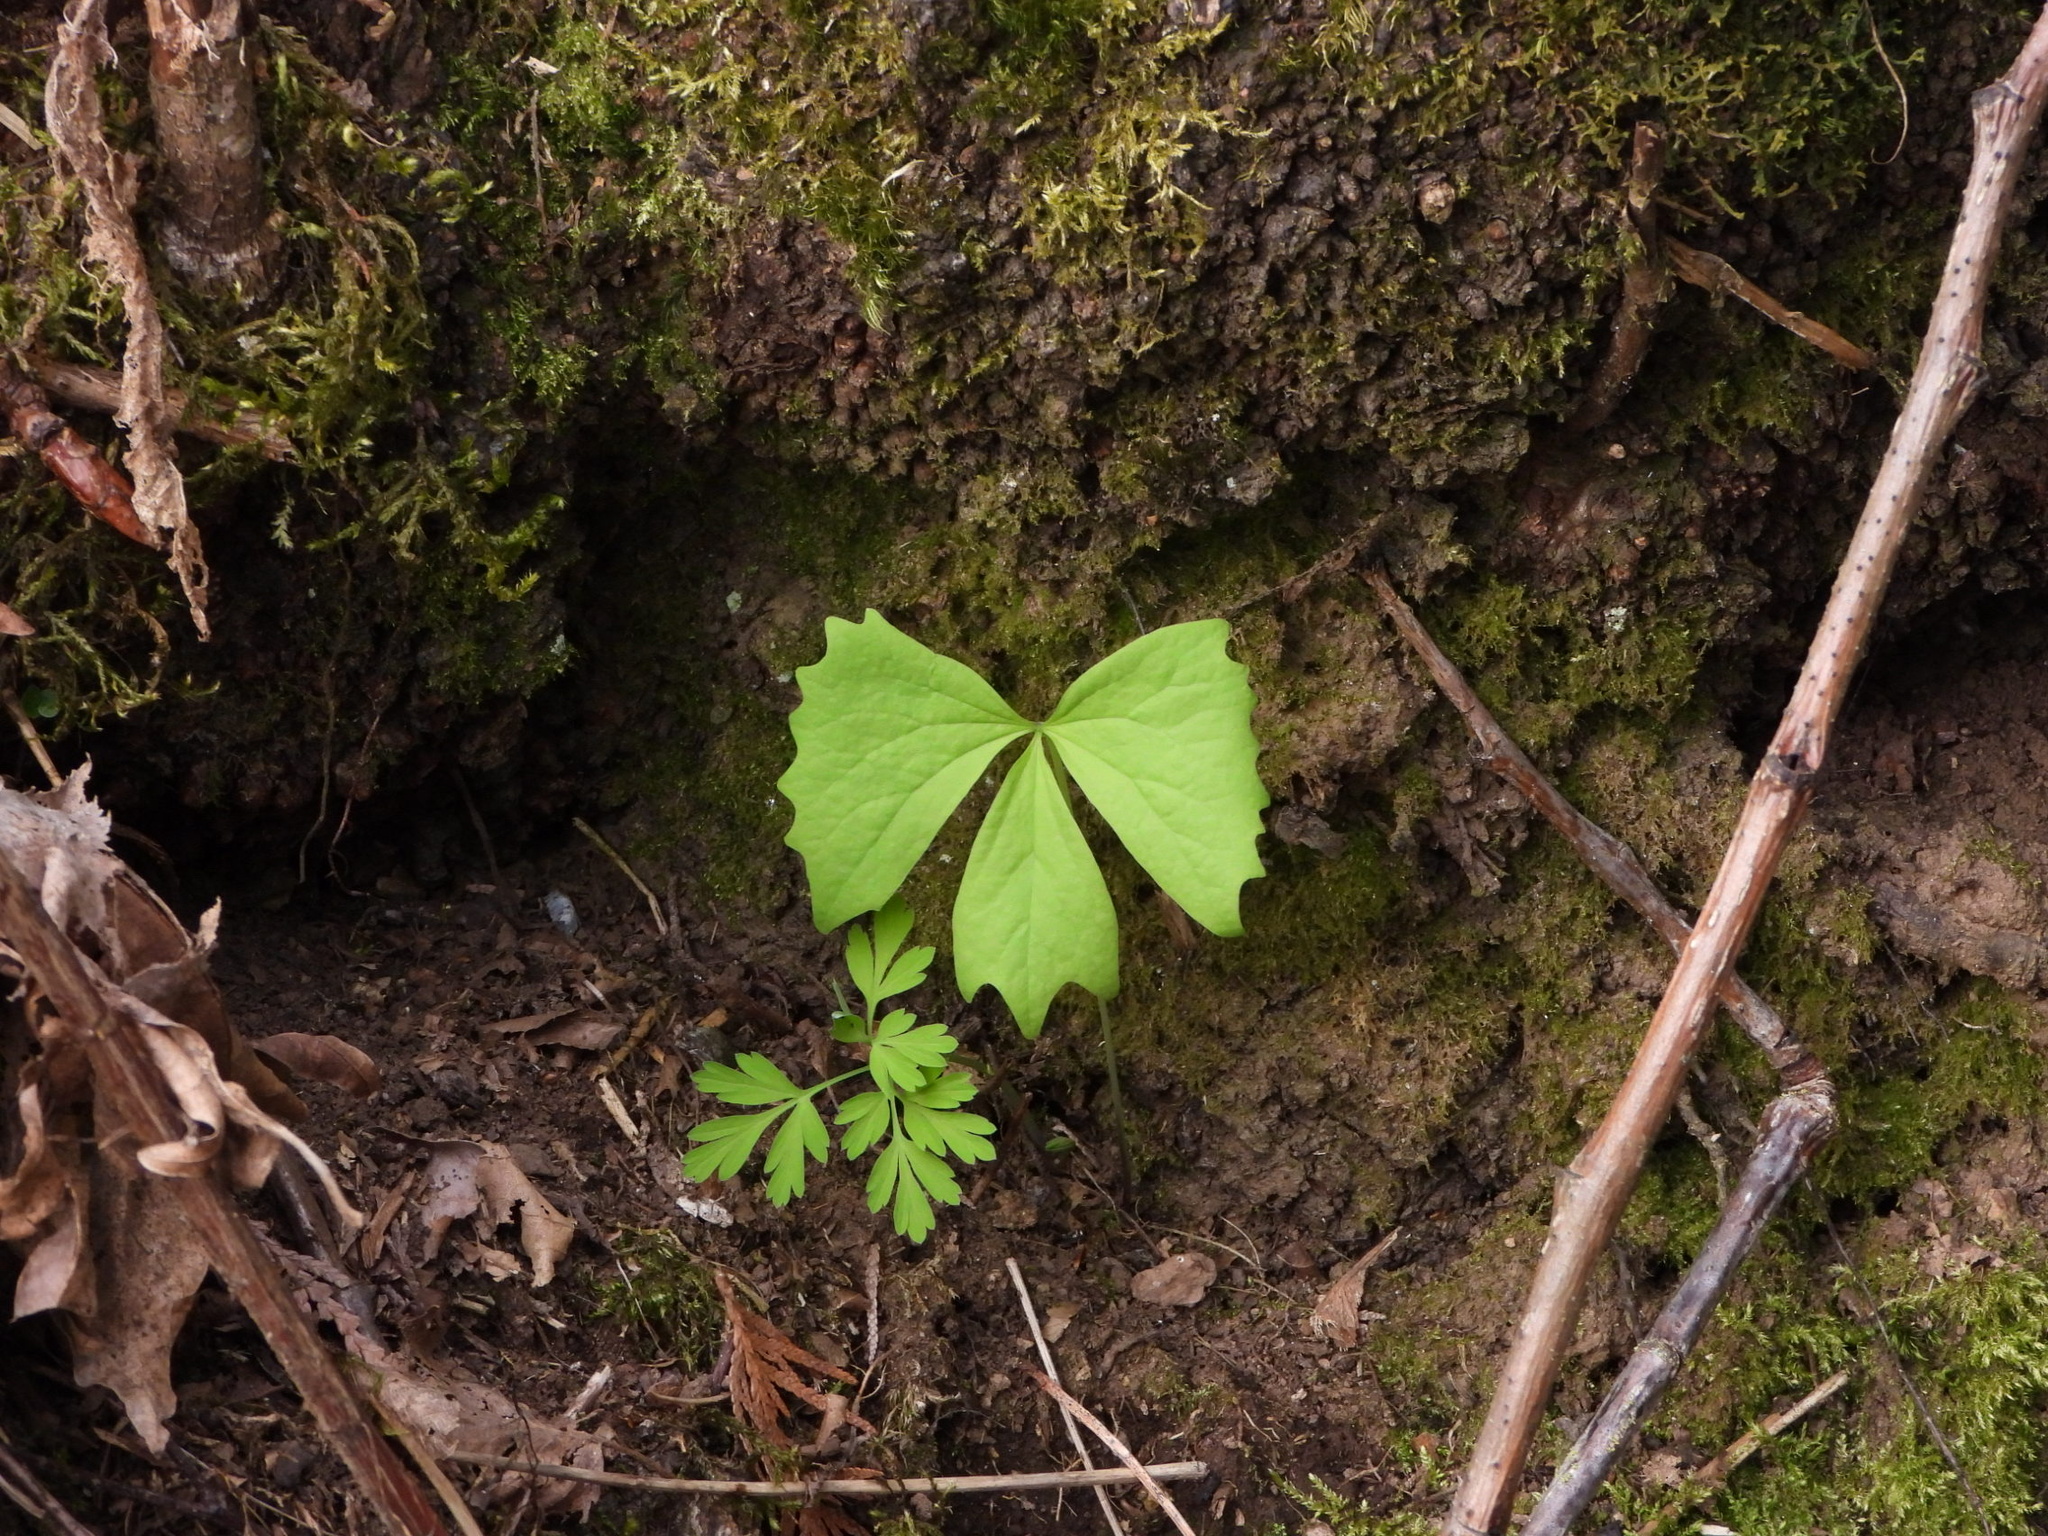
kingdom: Plantae
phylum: Tracheophyta
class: Magnoliopsida
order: Ranunculales
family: Berberidaceae
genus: Achlys
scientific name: Achlys triphylla
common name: Vanilla-leaf
